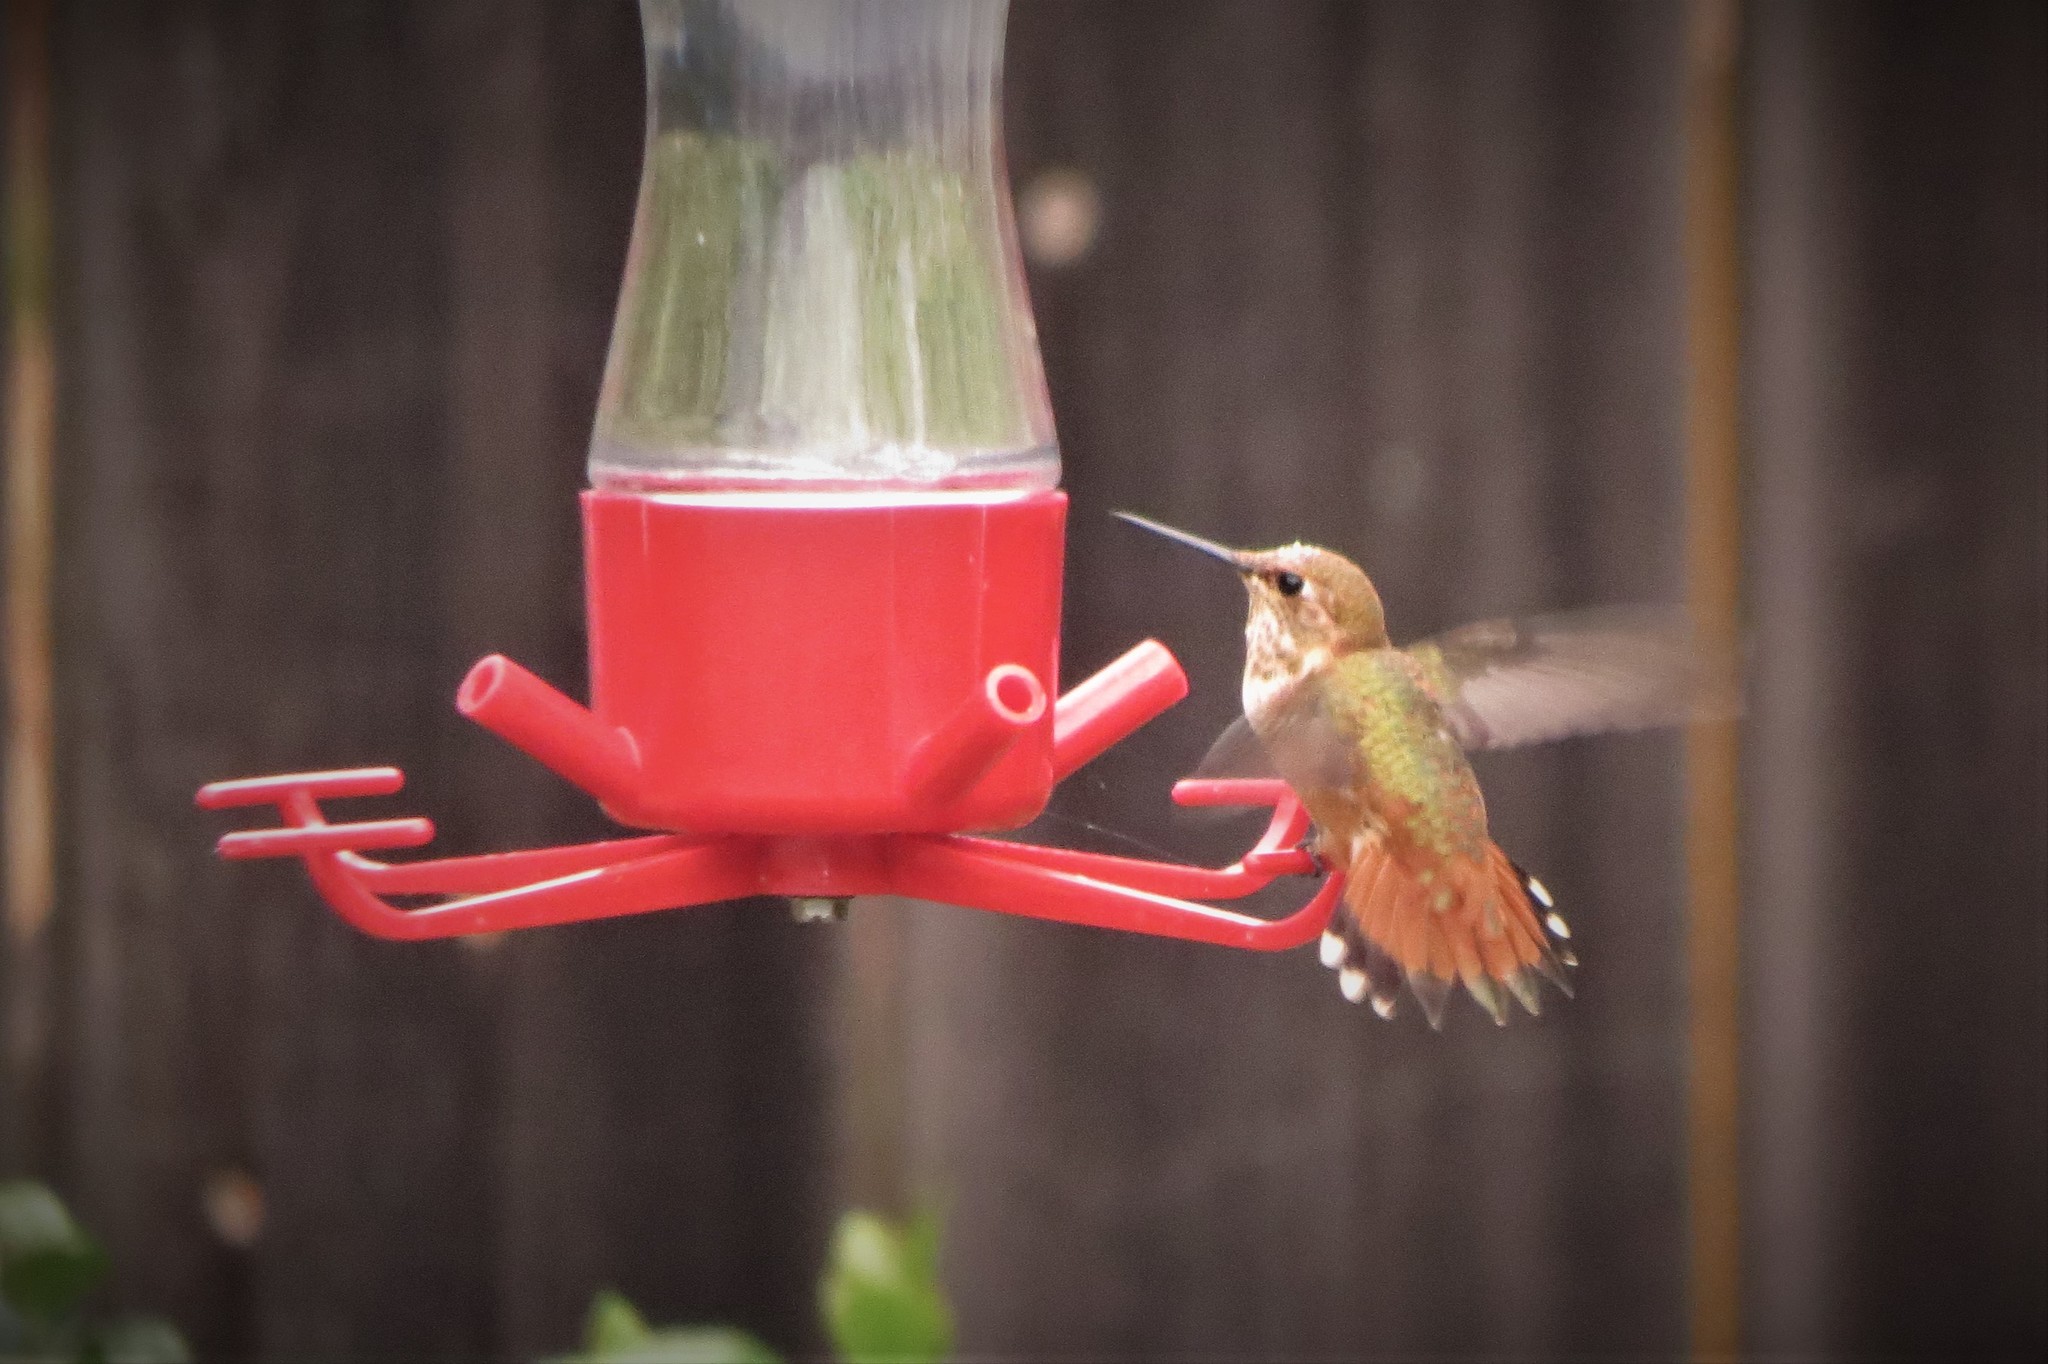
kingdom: Animalia
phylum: Chordata
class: Aves
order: Apodiformes
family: Trochilidae
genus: Selasphorus
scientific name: Selasphorus rufus
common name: Rufous hummingbird
